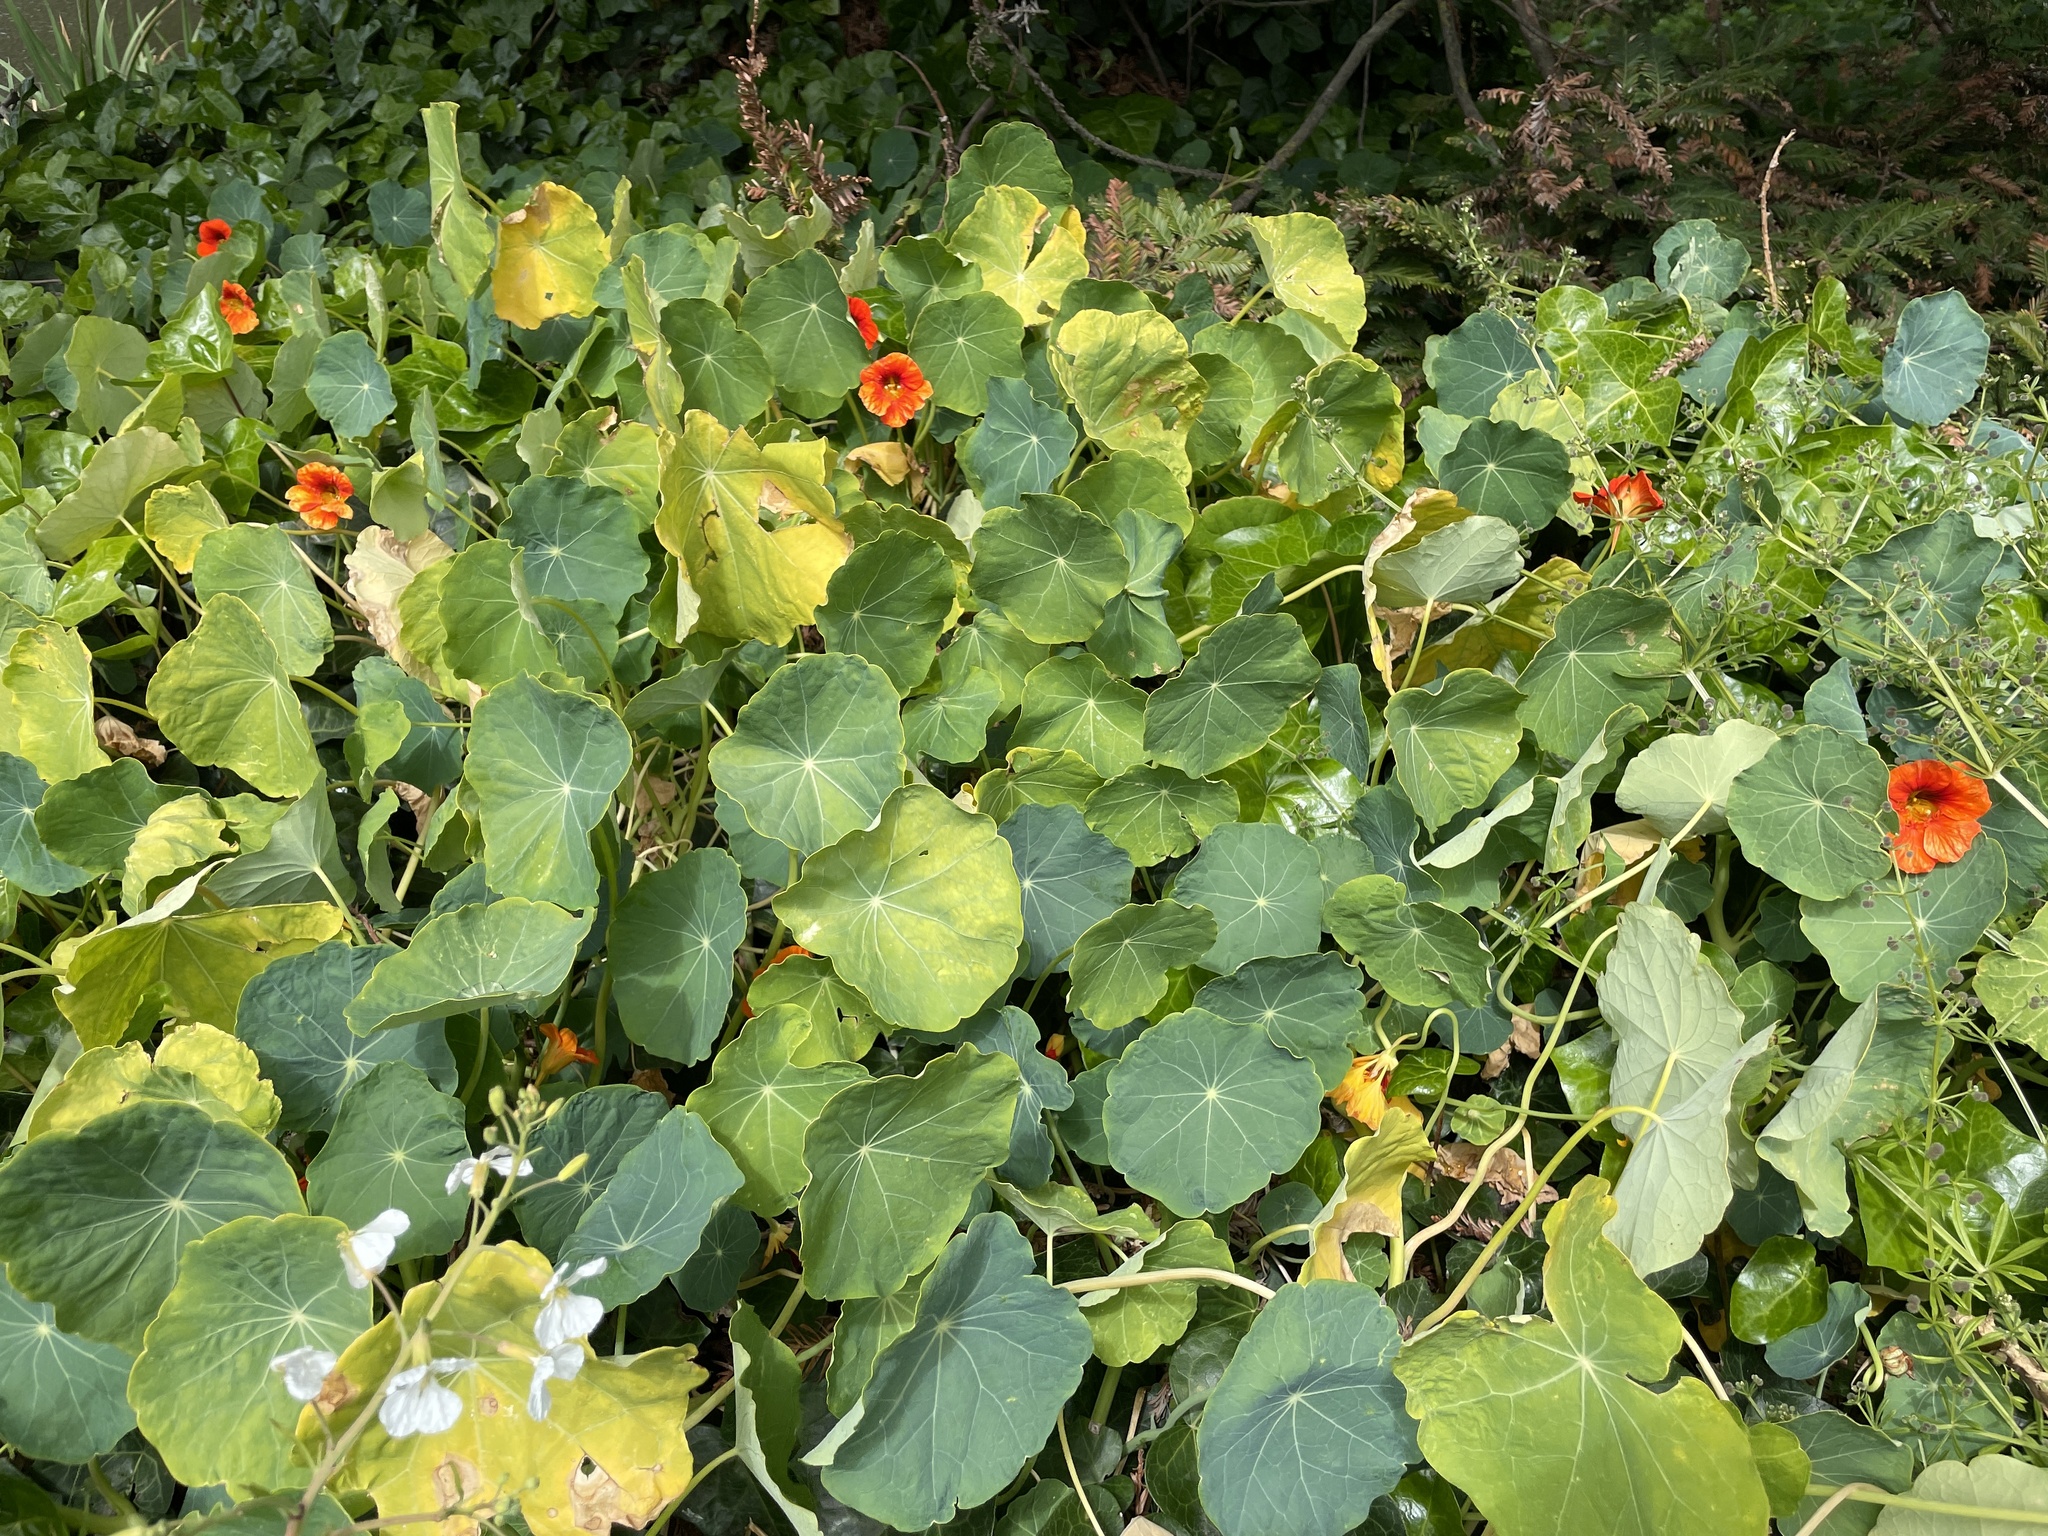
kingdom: Plantae
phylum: Tracheophyta
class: Magnoliopsida
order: Brassicales
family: Tropaeolaceae
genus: Tropaeolum
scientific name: Tropaeolum majus
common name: Nasturtium
